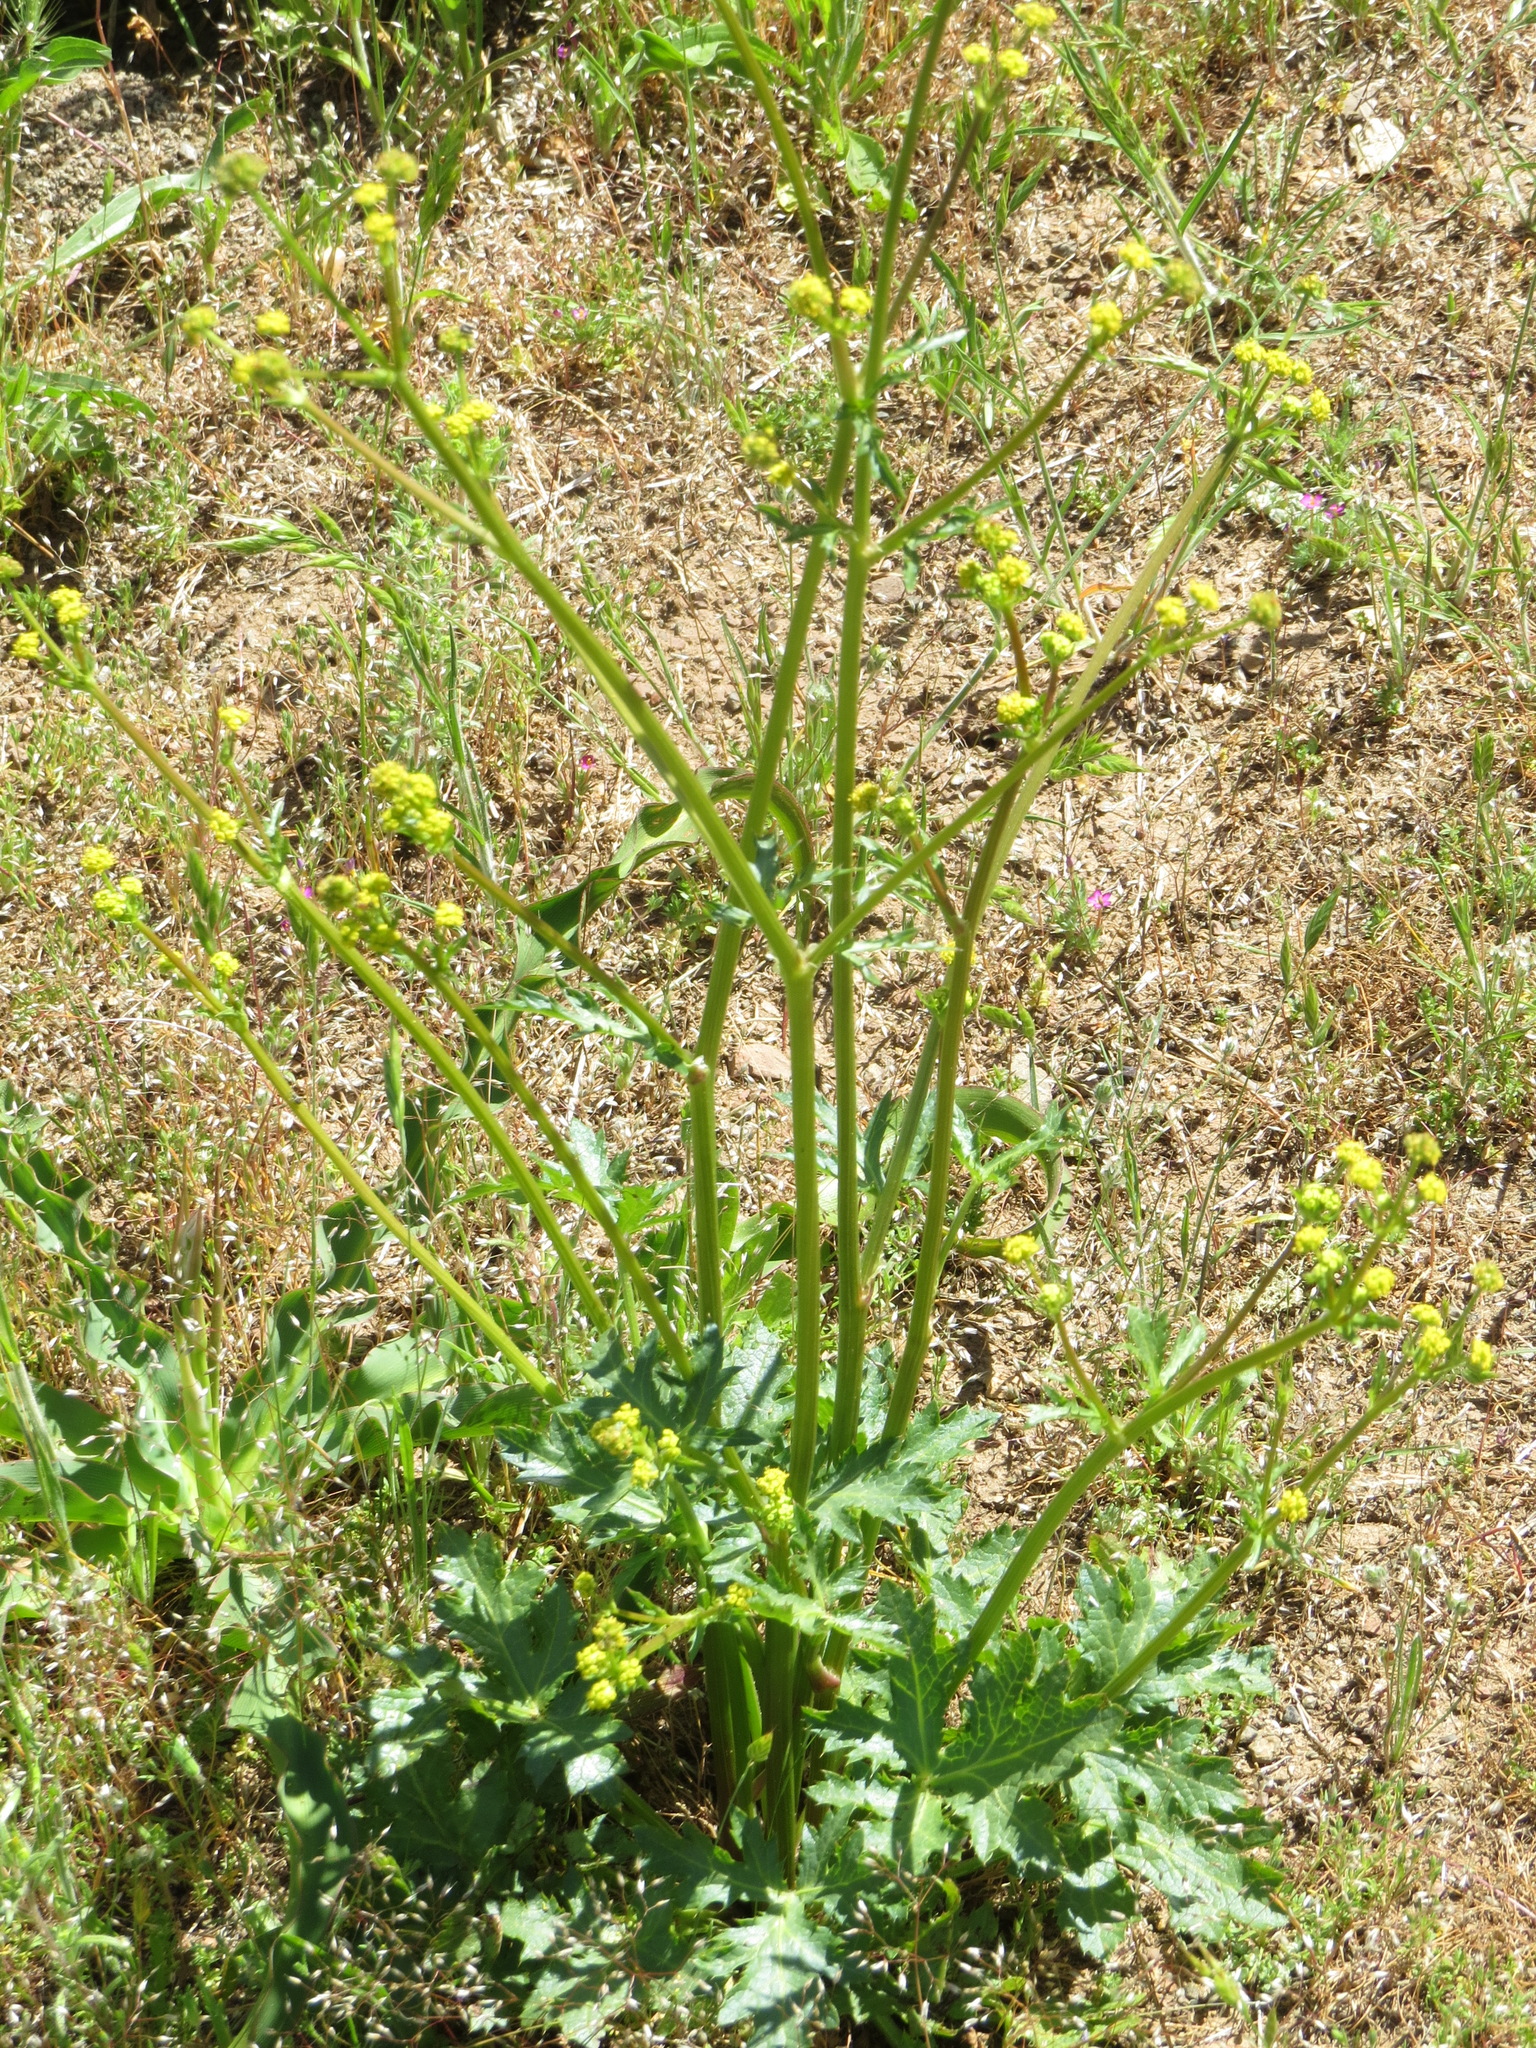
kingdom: Plantae
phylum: Tracheophyta
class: Magnoliopsida
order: Apiales
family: Apiaceae
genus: Sanicula
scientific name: Sanicula crassicaulis
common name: Western snakeroot
